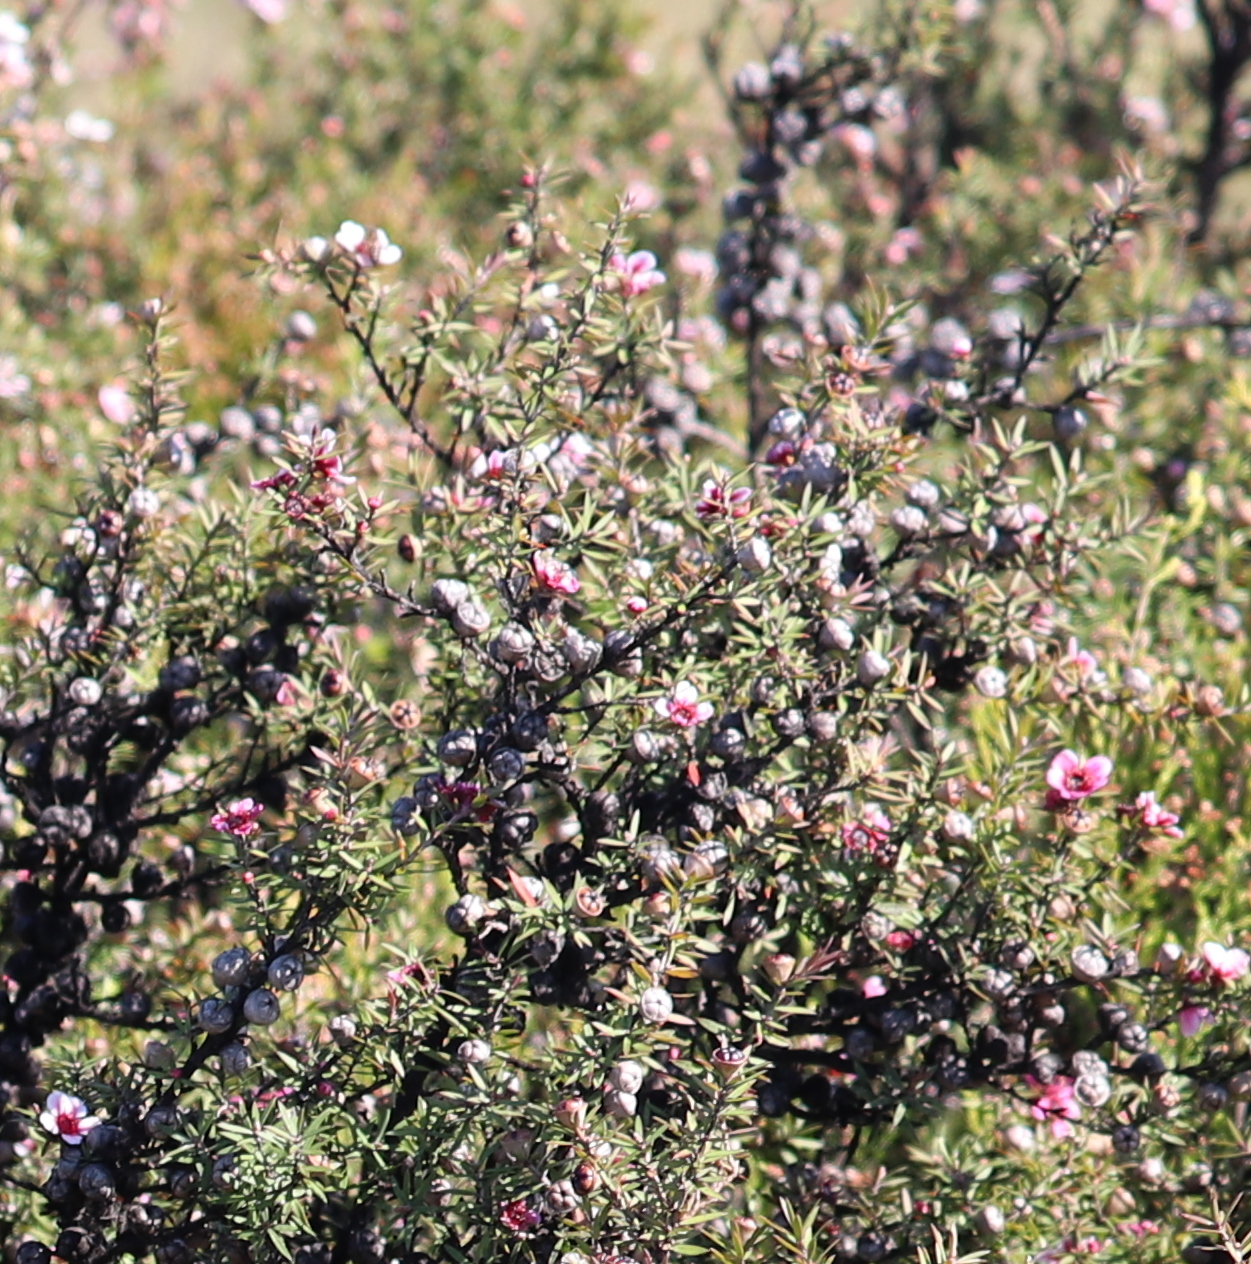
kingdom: Plantae
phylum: Tracheophyta
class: Magnoliopsida
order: Myrtales
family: Myrtaceae
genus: Leptospermum
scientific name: Leptospermum scoparium
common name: Broom tea-tree
